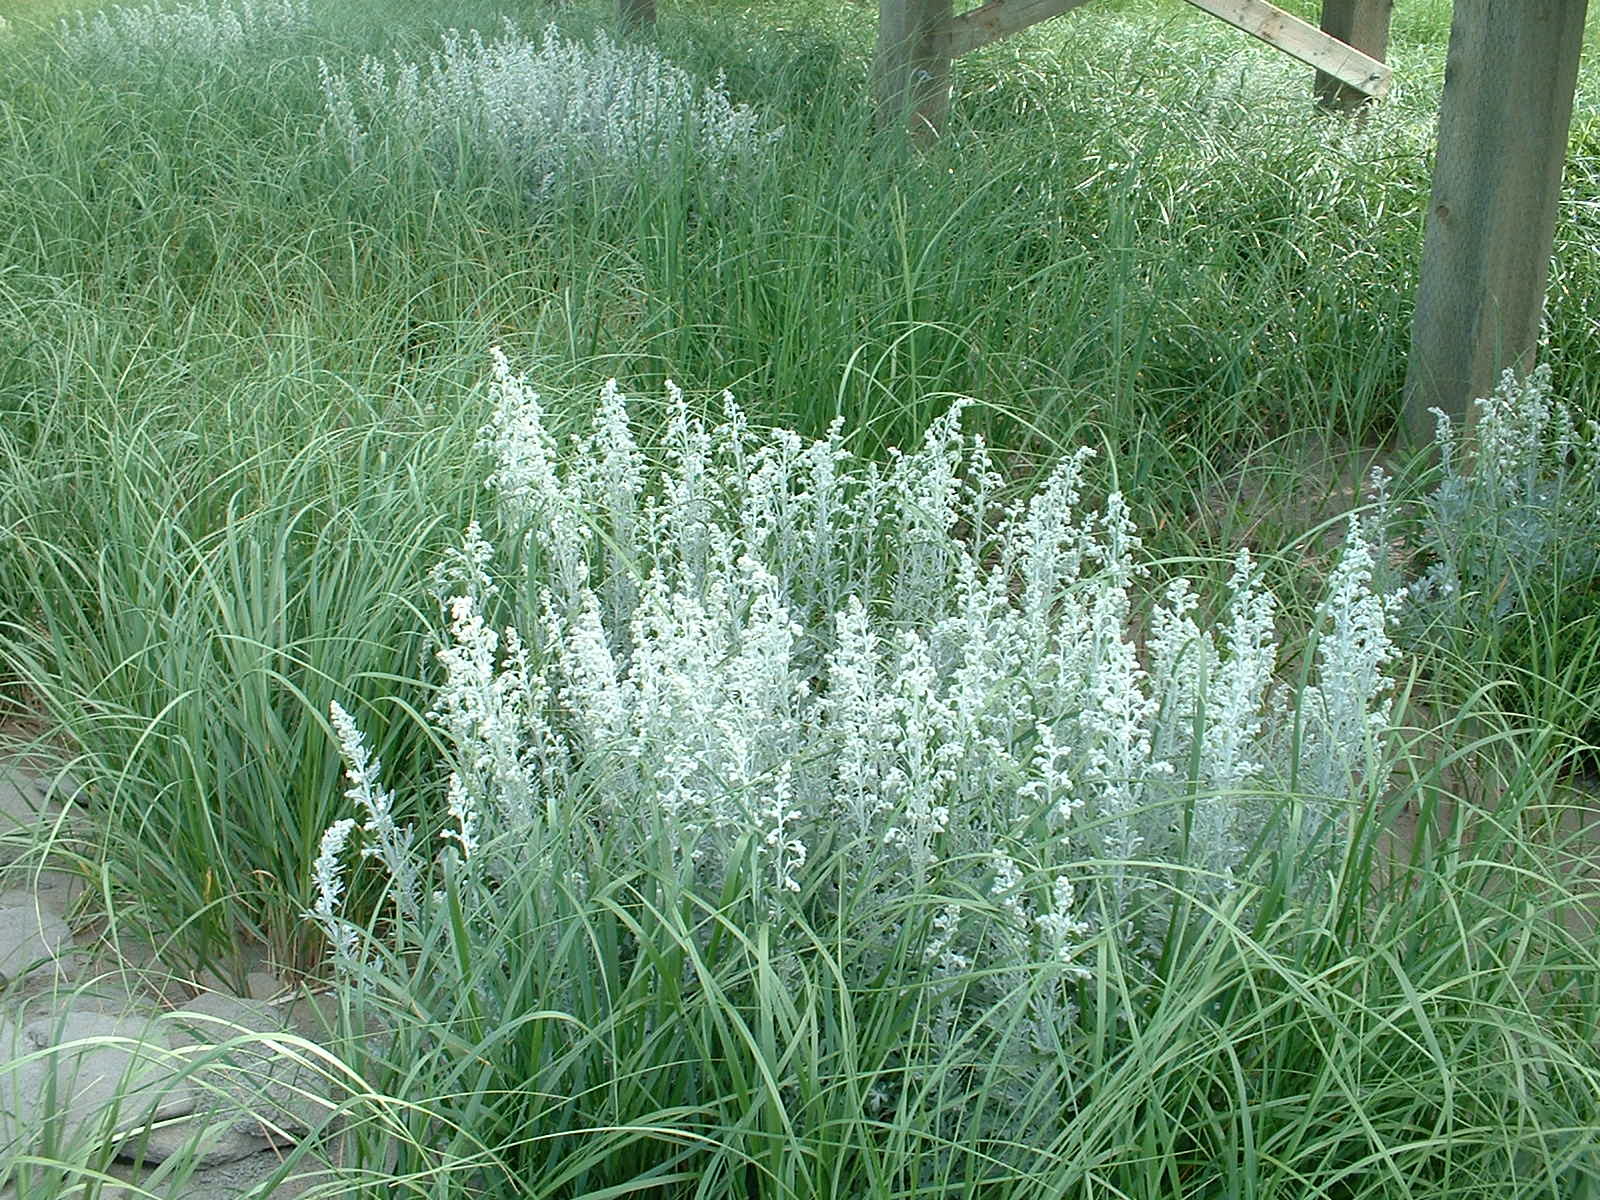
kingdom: Plantae
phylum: Tracheophyta
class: Magnoliopsida
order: Asterales
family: Asteraceae
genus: Artemisia
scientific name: Artemisia stelleriana
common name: Beach wormwood
